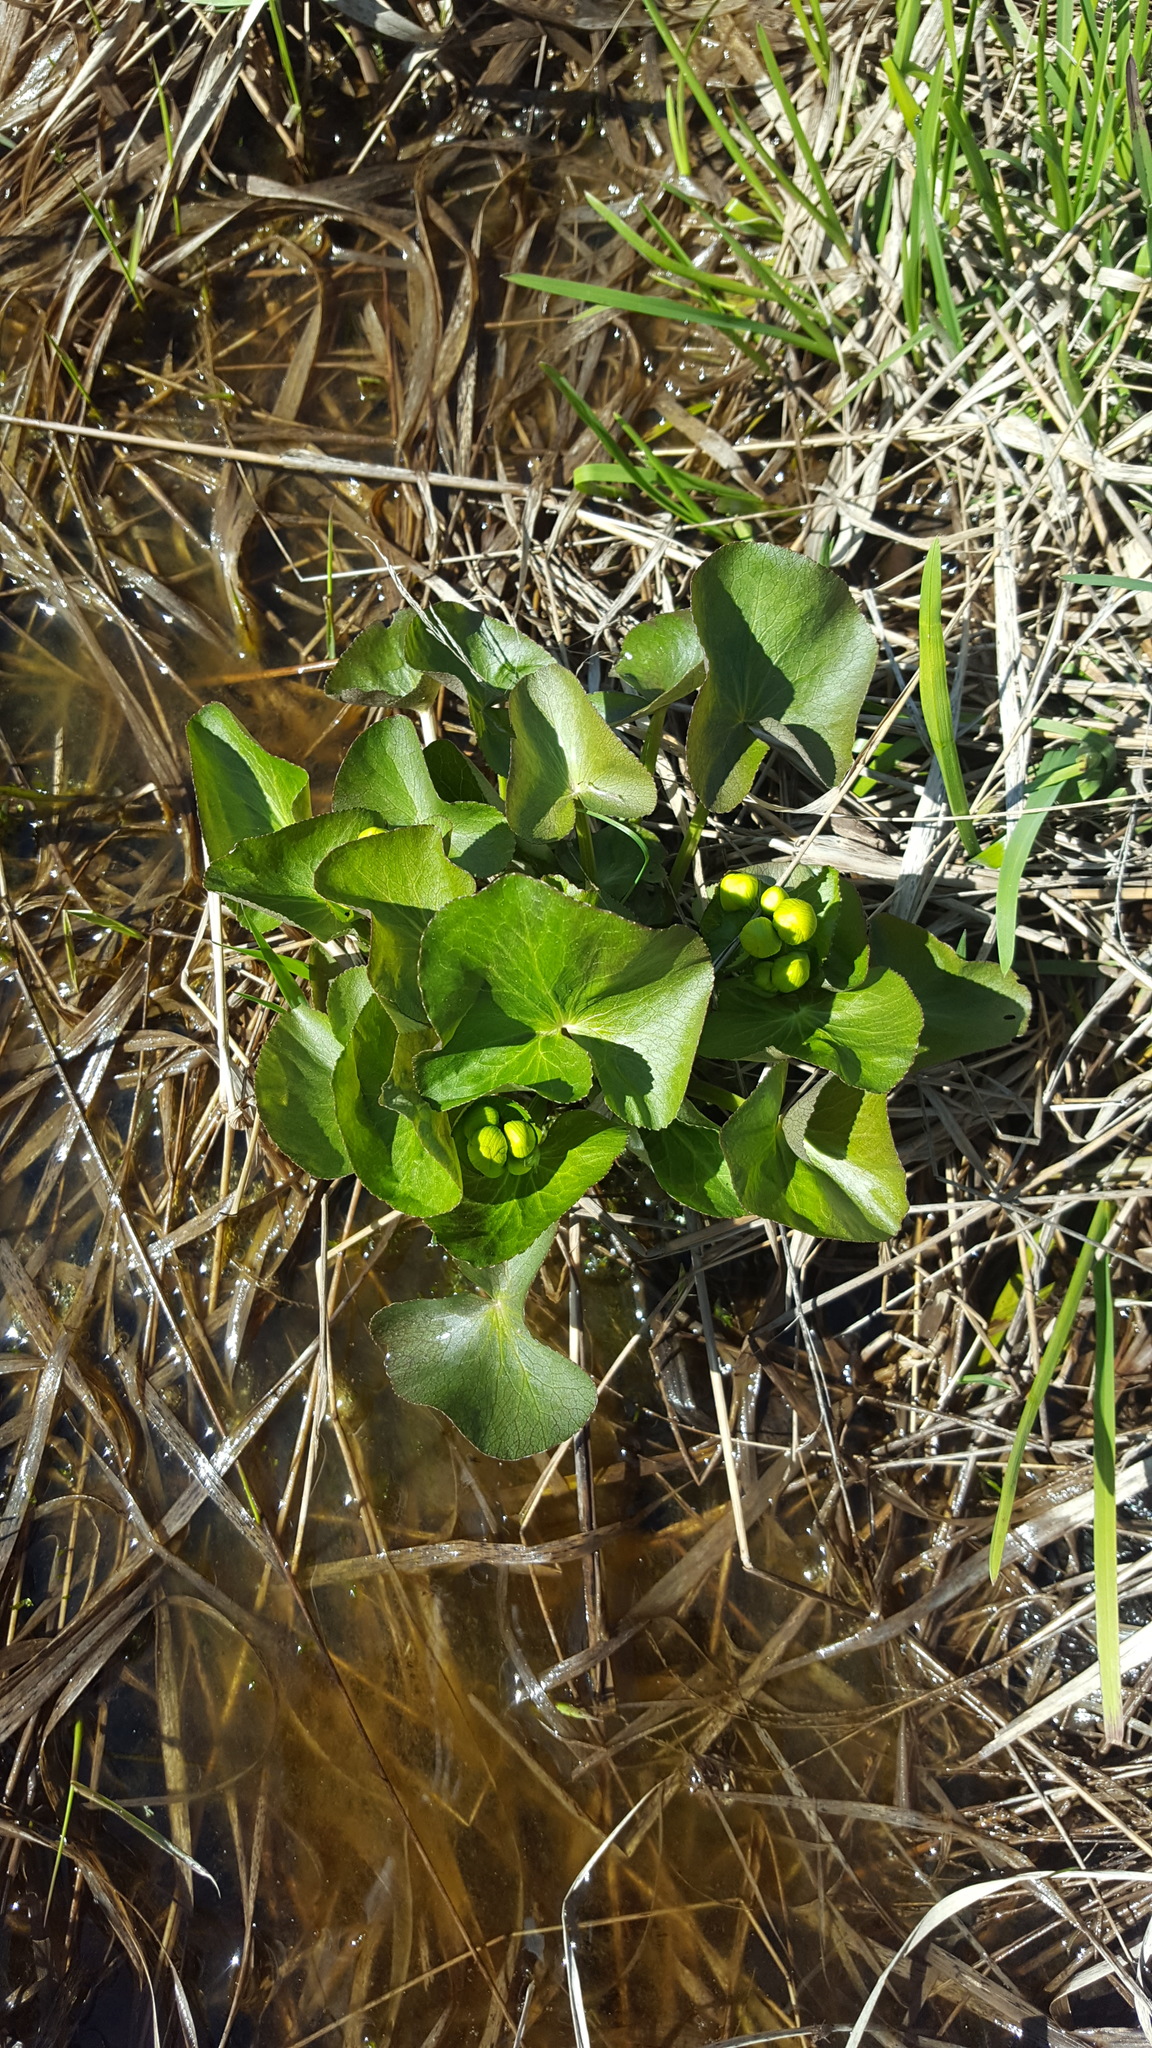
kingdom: Plantae
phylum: Tracheophyta
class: Magnoliopsida
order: Ranunculales
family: Ranunculaceae
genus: Caltha
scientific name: Caltha palustris
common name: Marsh marigold
